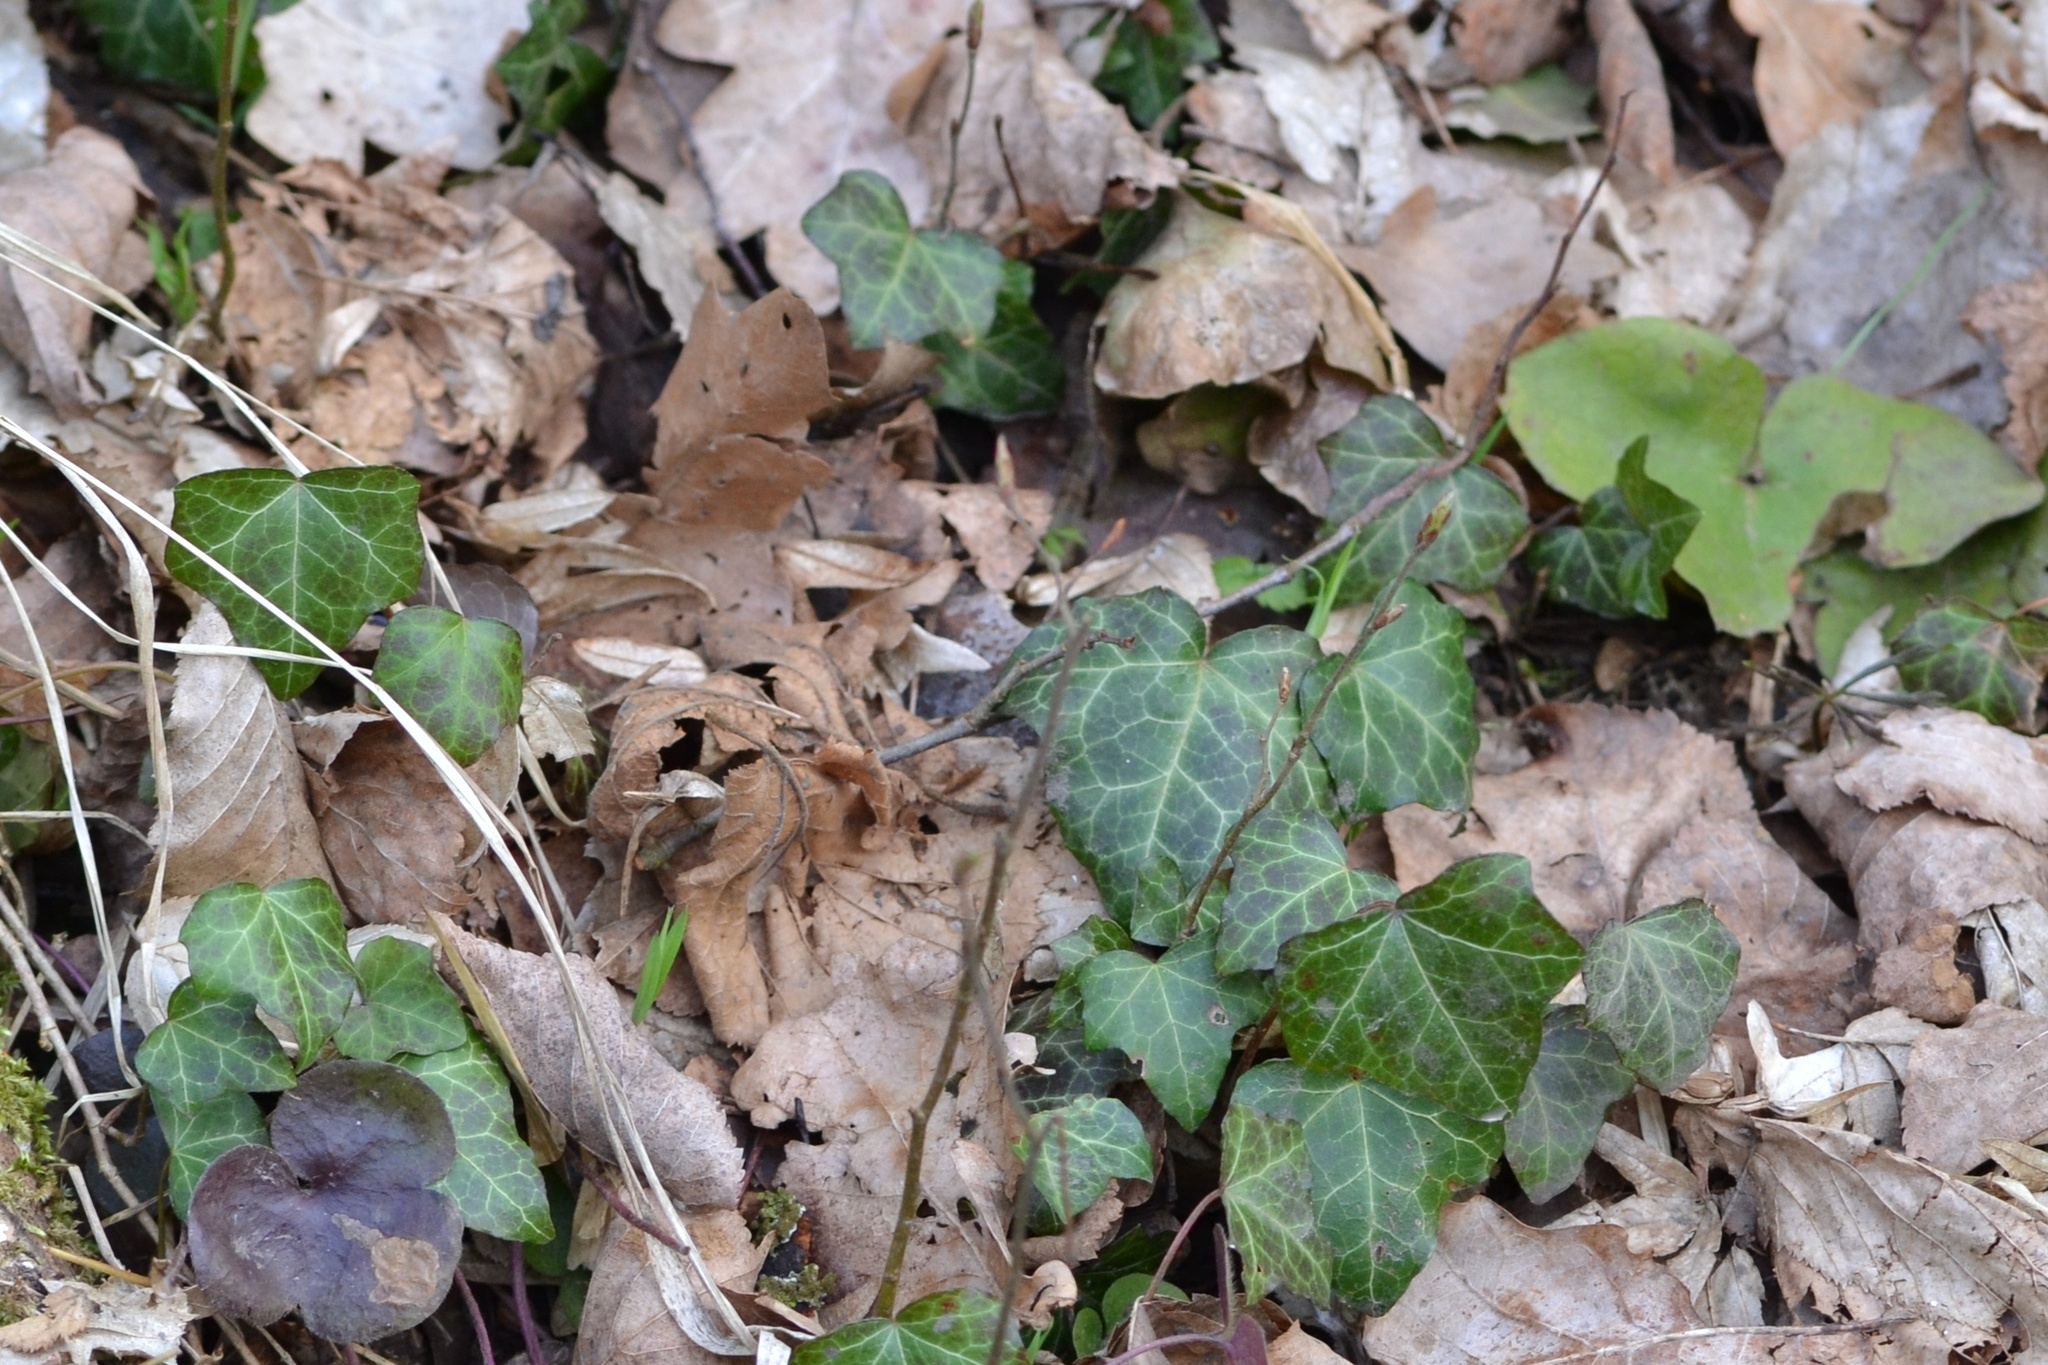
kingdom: Plantae
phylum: Tracheophyta
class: Magnoliopsida
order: Apiales
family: Araliaceae
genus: Hedera
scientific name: Hedera helix
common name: Ivy
